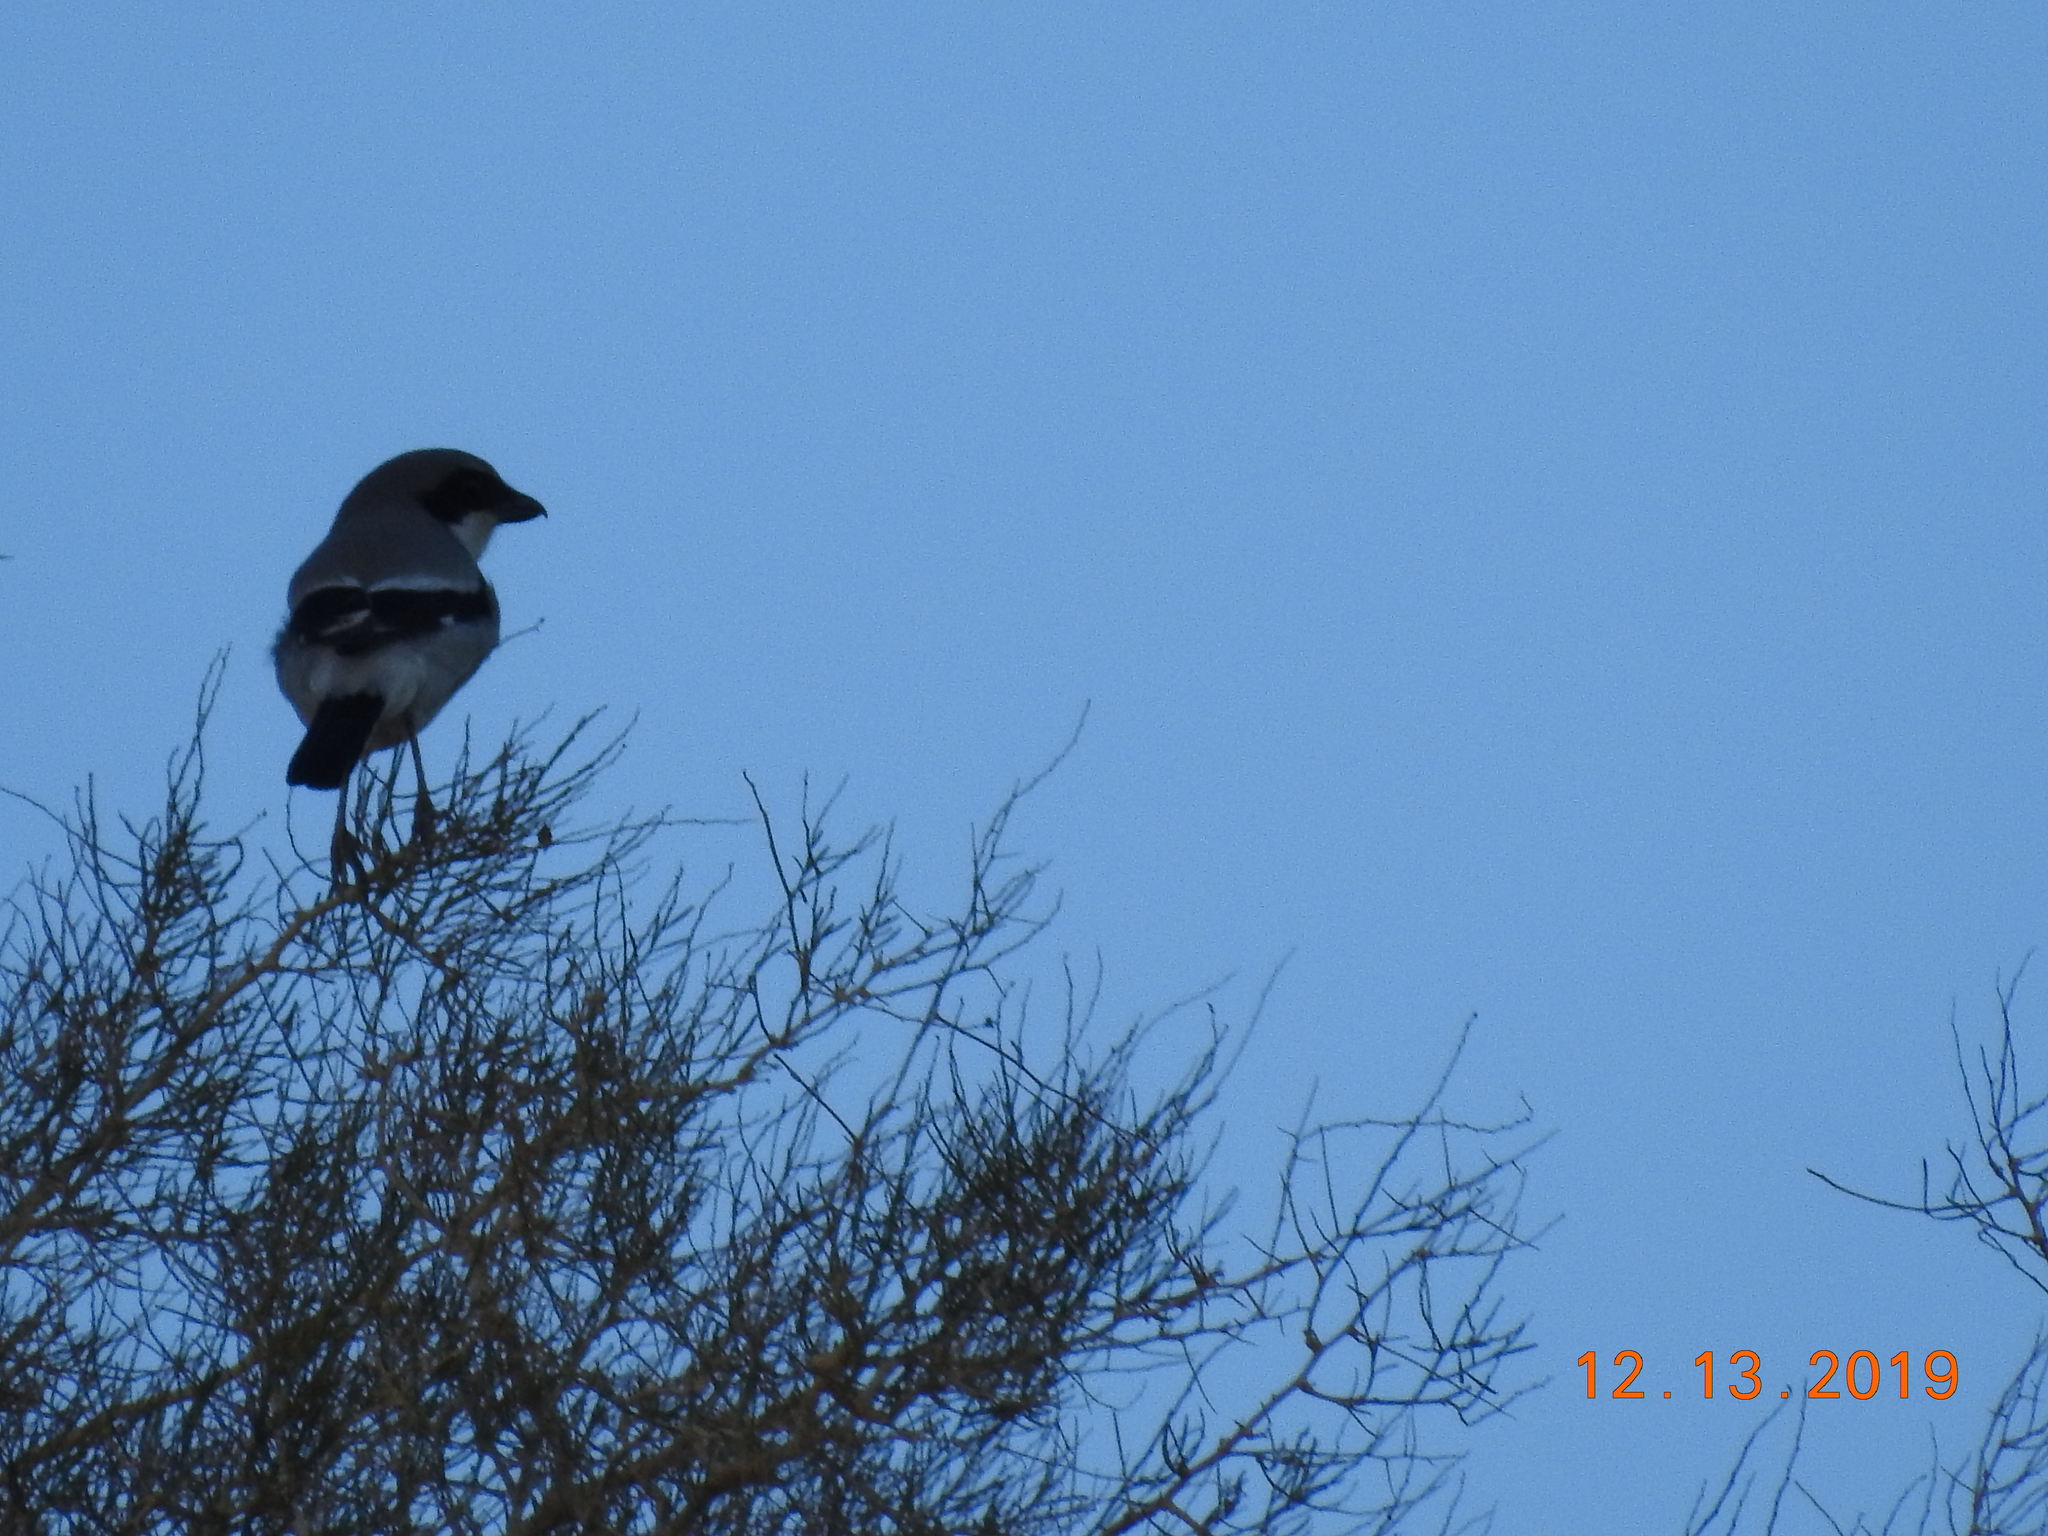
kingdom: Animalia
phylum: Chordata
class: Aves
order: Passeriformes
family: Laniidae
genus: Lanius
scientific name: Lanius ludovicianus
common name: Loggerhead shrike
